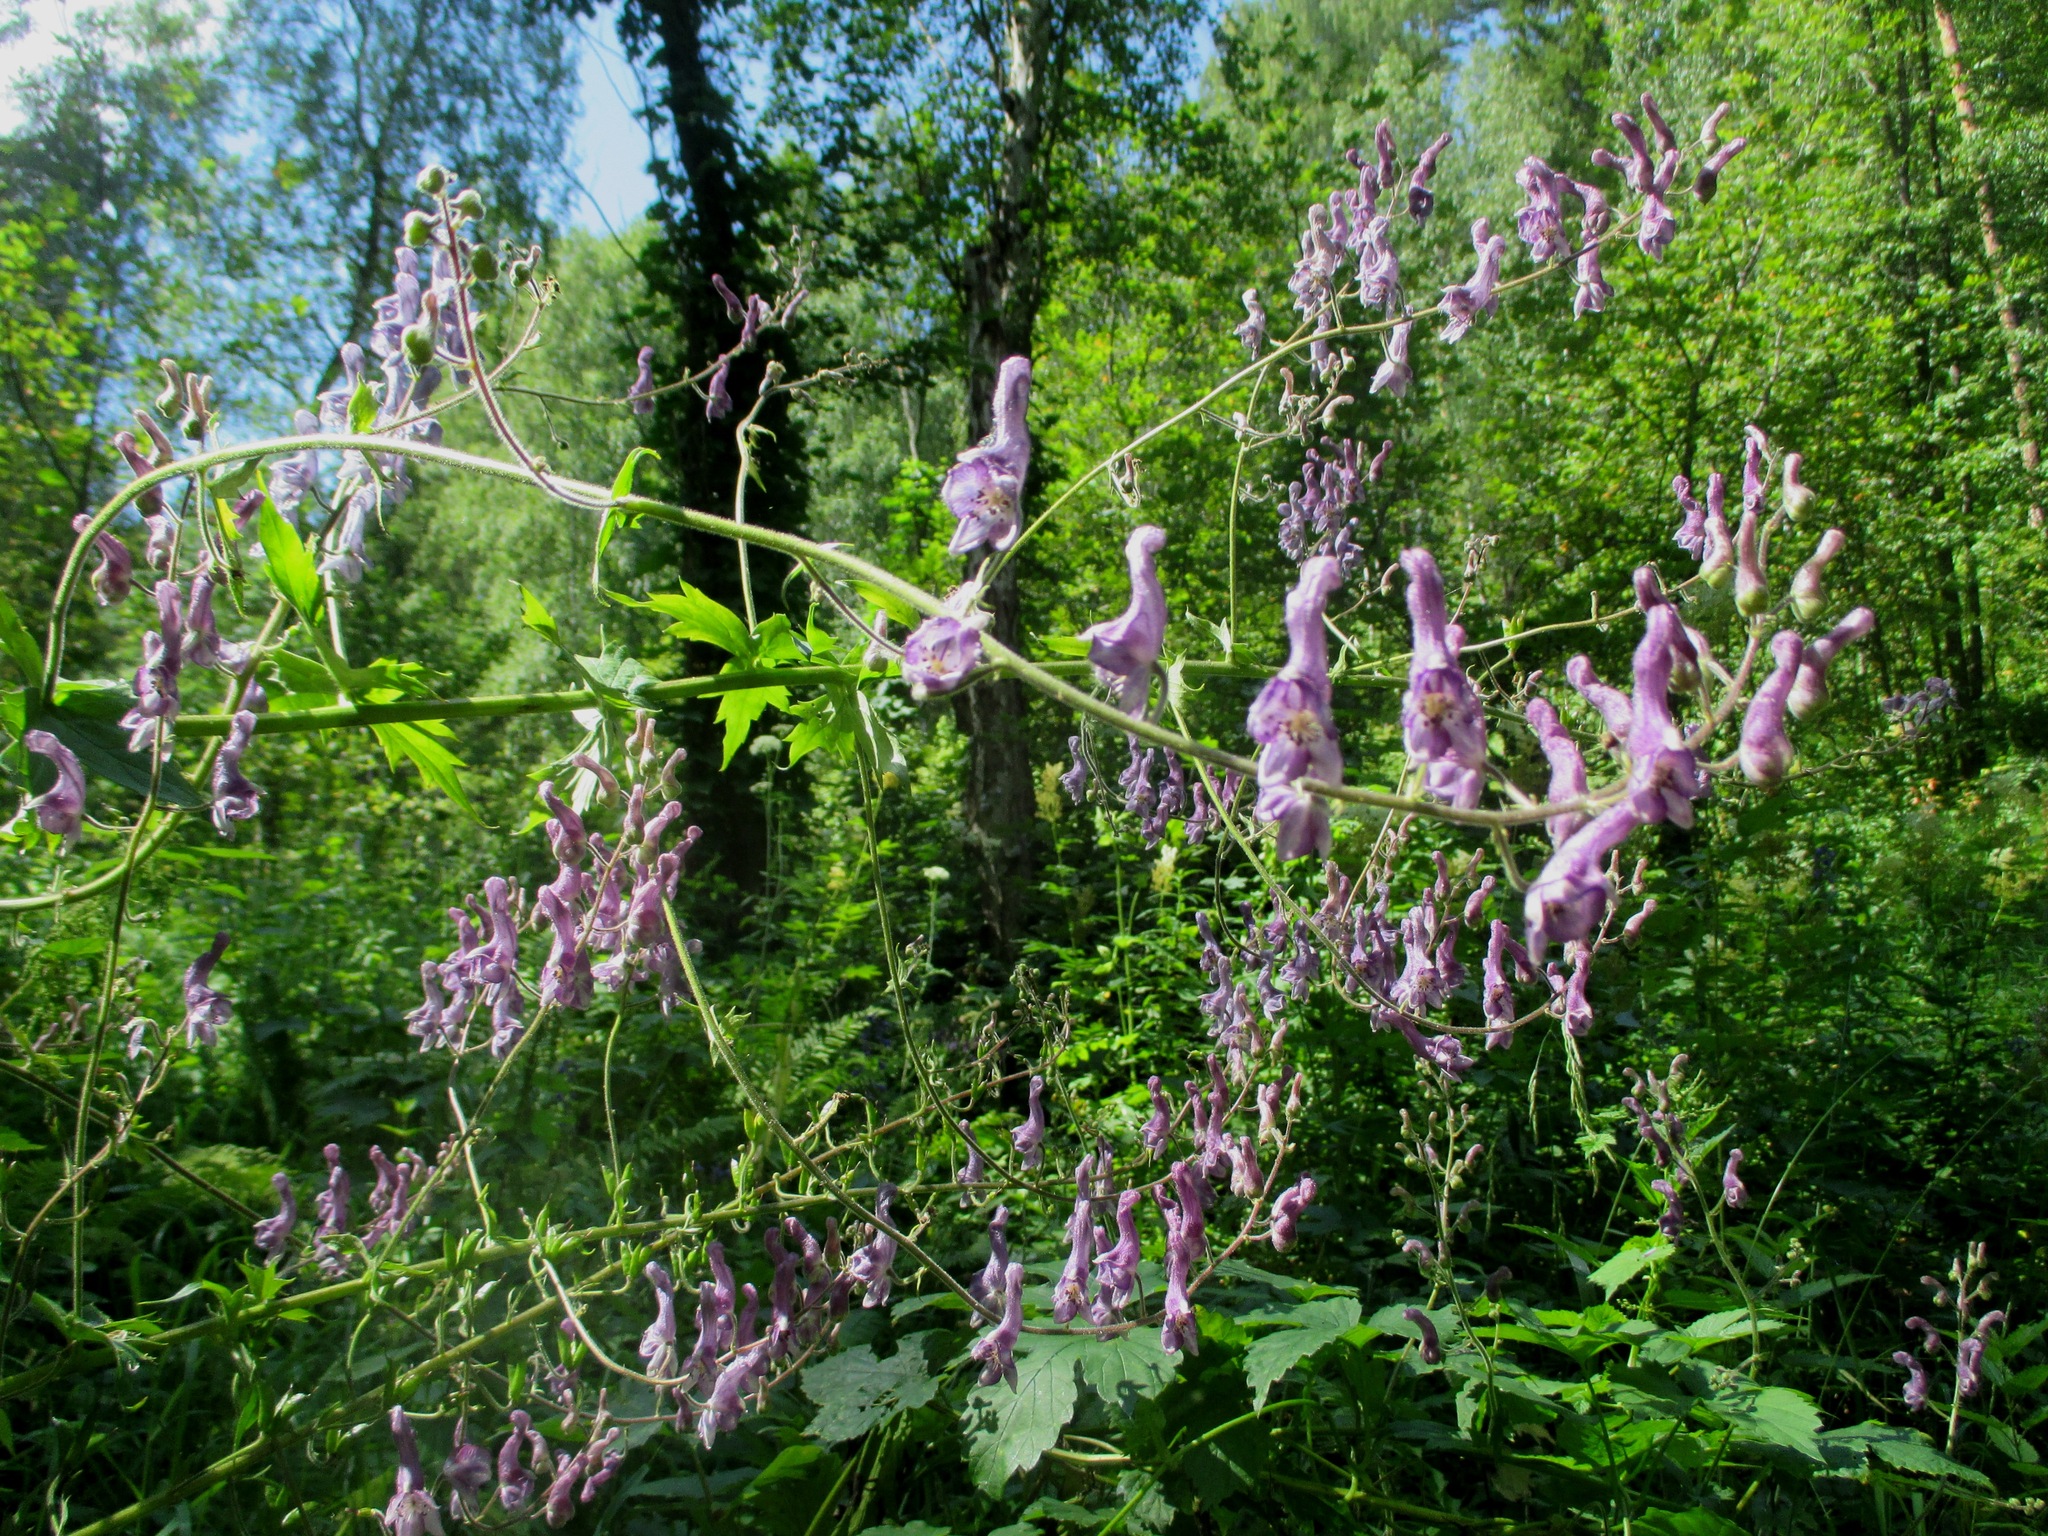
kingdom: Plantae
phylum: Tracheophyta
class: Magnoliopsida
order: Ranunculales
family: Ranunculaceae
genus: Aconitum
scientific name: Aconitum septentrionale
